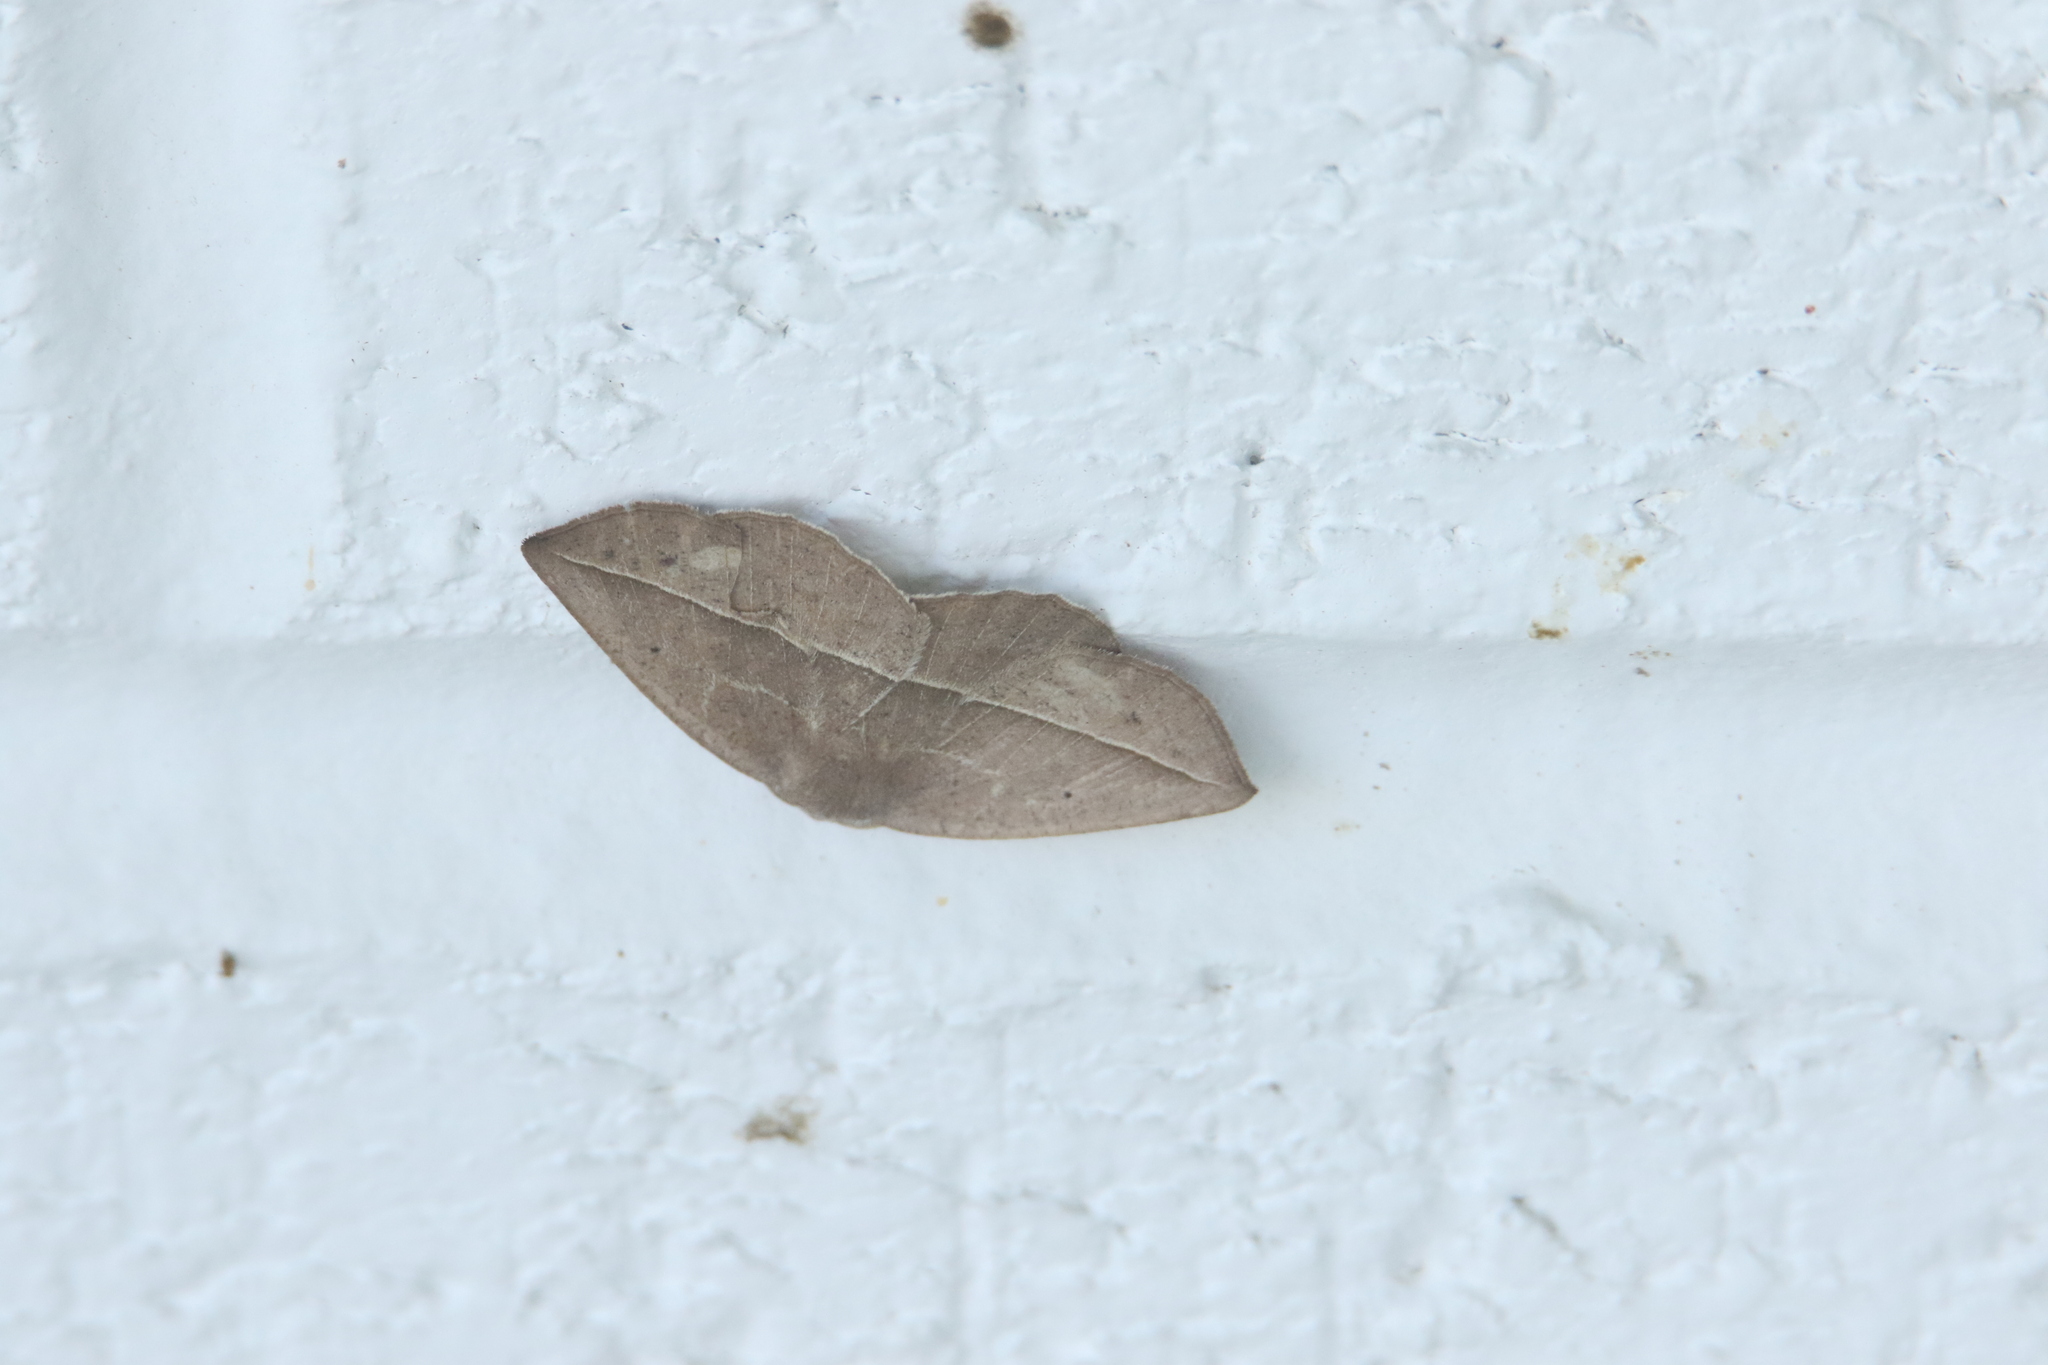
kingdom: Animalia
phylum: Arthropoda
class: Insecta
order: Lepidoptera
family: Erebidae
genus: Anticarsia
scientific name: Anticarsia gemmatalis
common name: Cutworm moth
